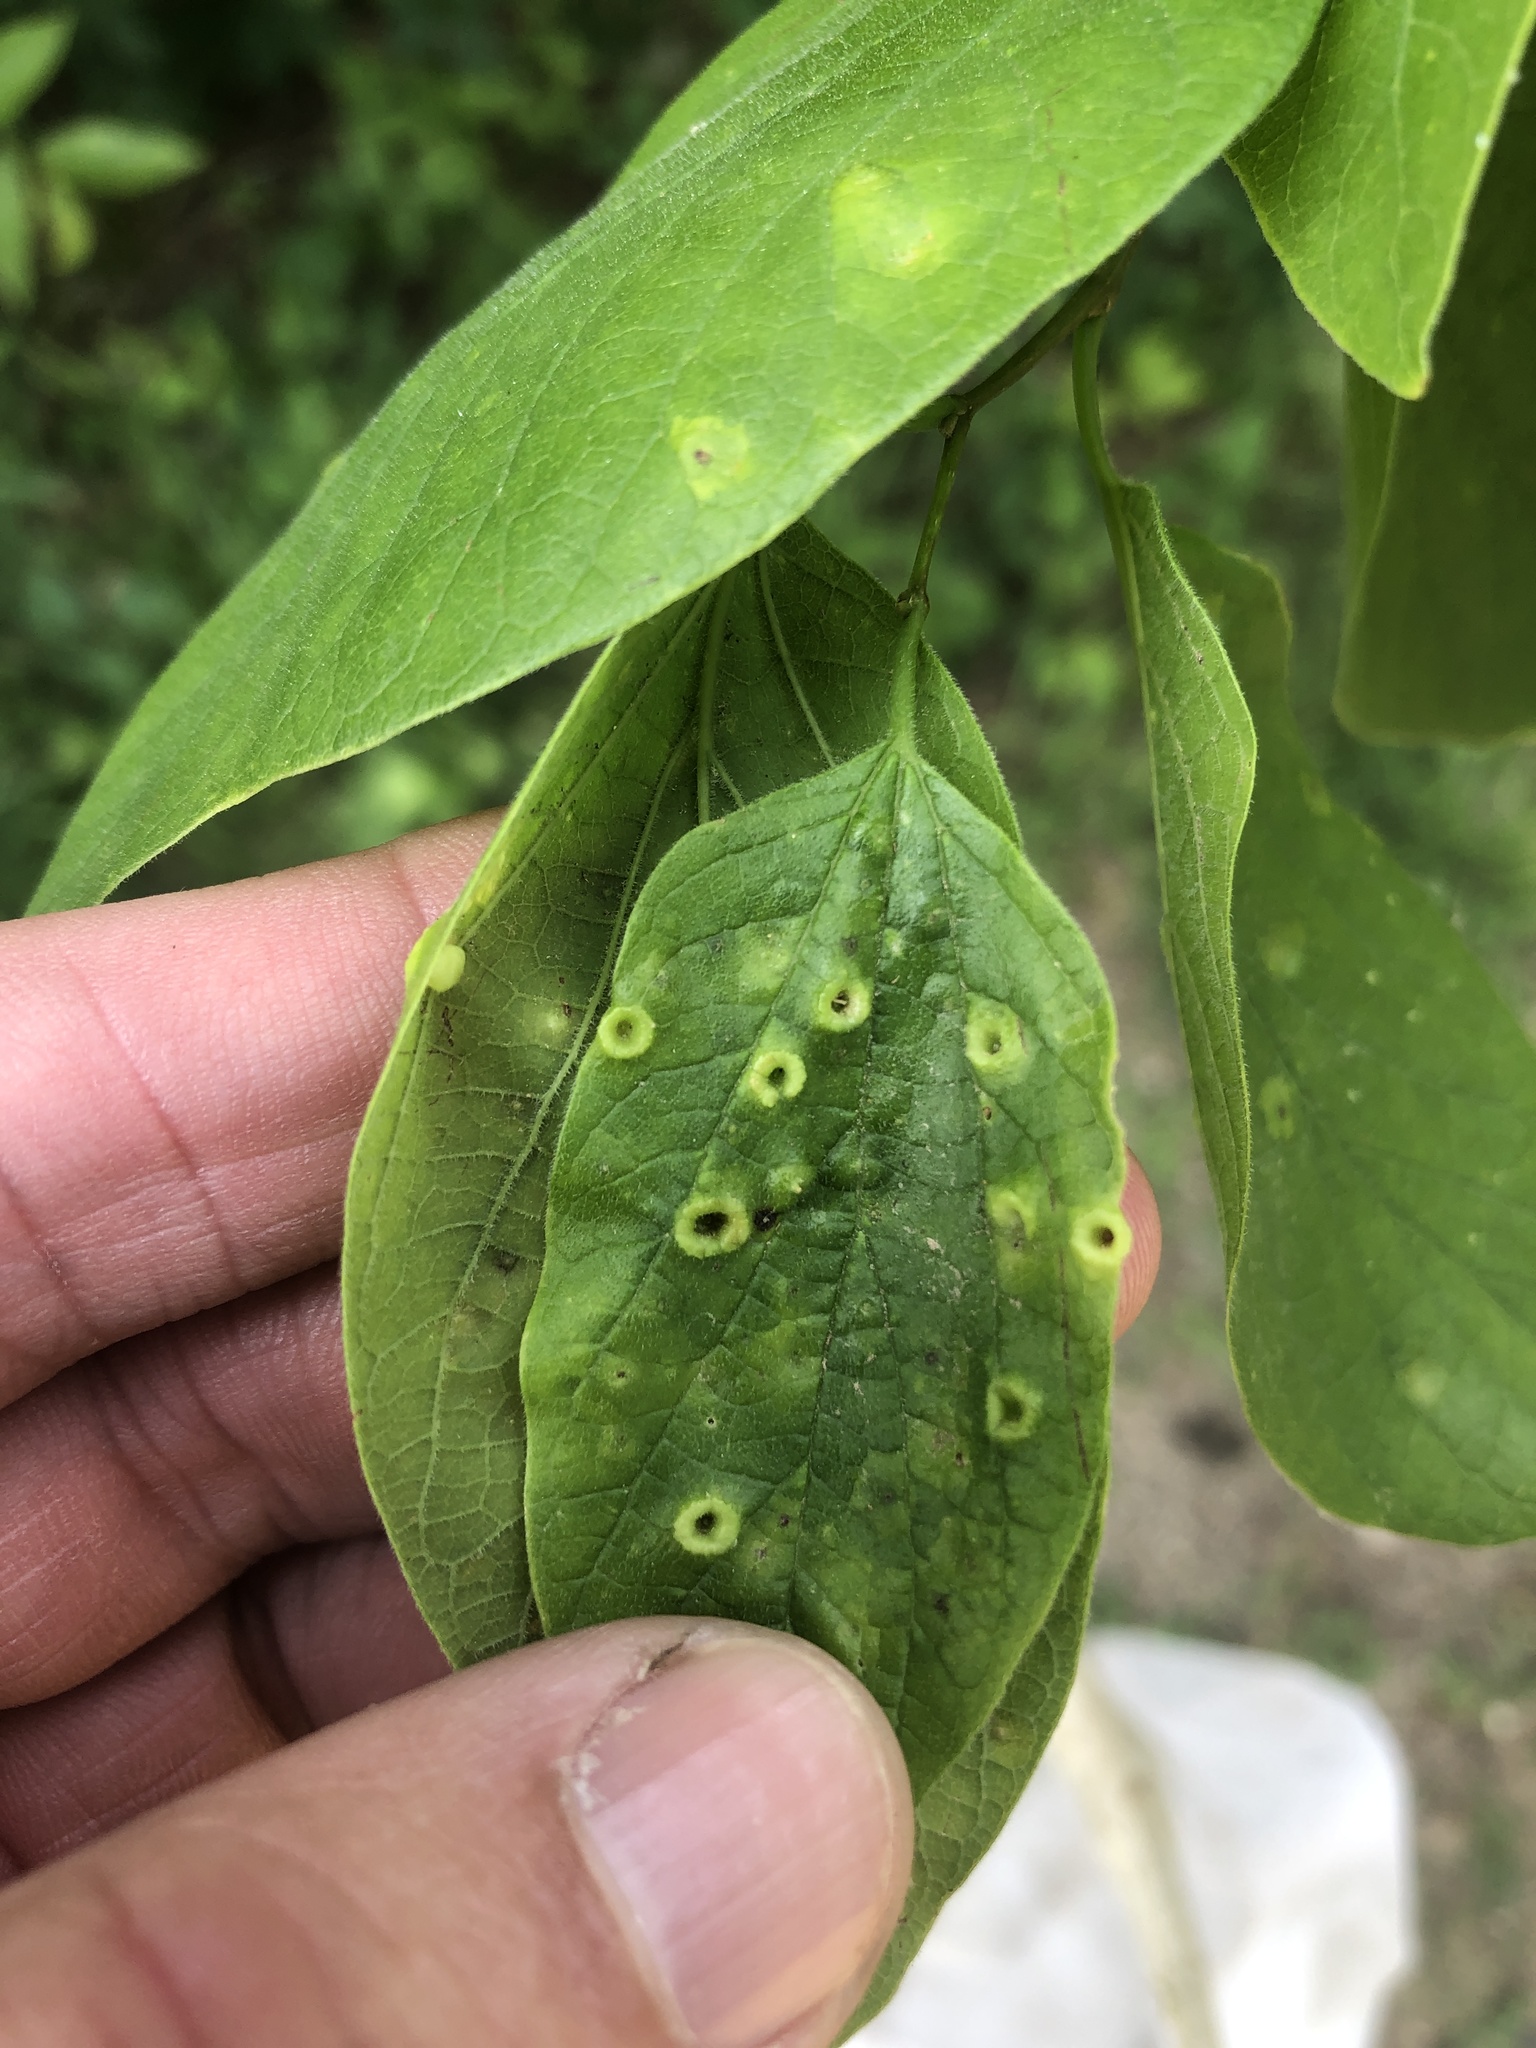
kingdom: Animalia
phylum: Arthropoda
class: Insecta
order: Hemiptera
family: Aphalaridae
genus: Pachypsylla
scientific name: Pachypsylla celtidismamma
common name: Hackberry nipplegall psyllid
